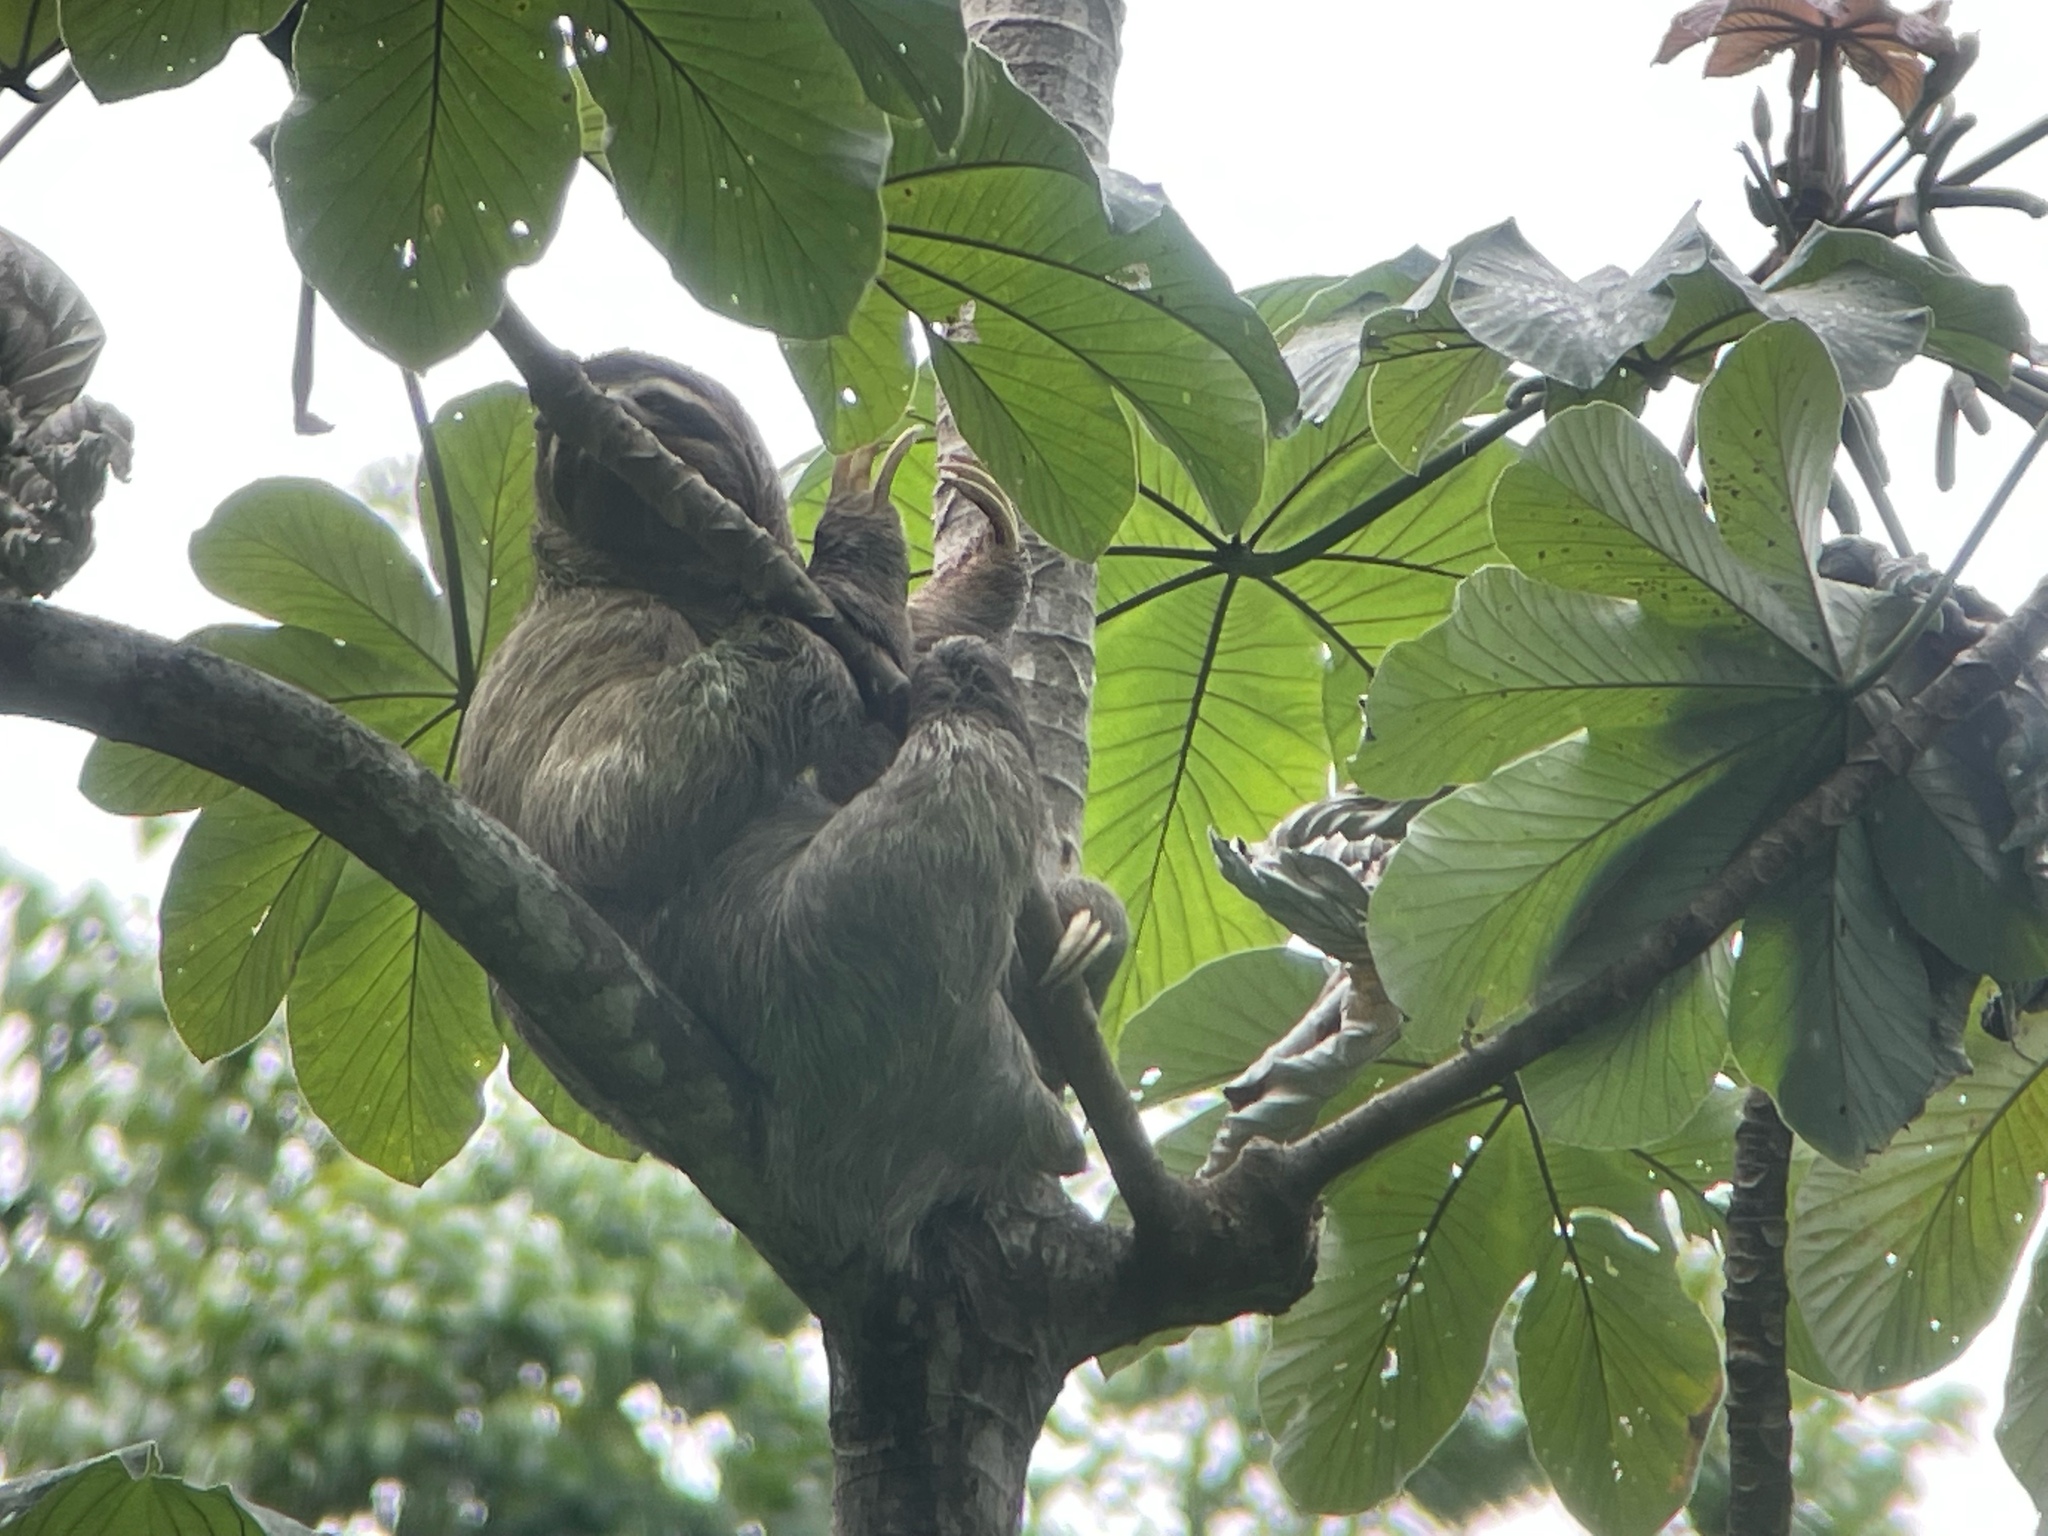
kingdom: Animalia
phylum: Chordata
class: Mammalia
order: Pilosa
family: Bradypodidae
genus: Bradypus
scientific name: Bradypus variegatus
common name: Brown-throated three-toed sloth
